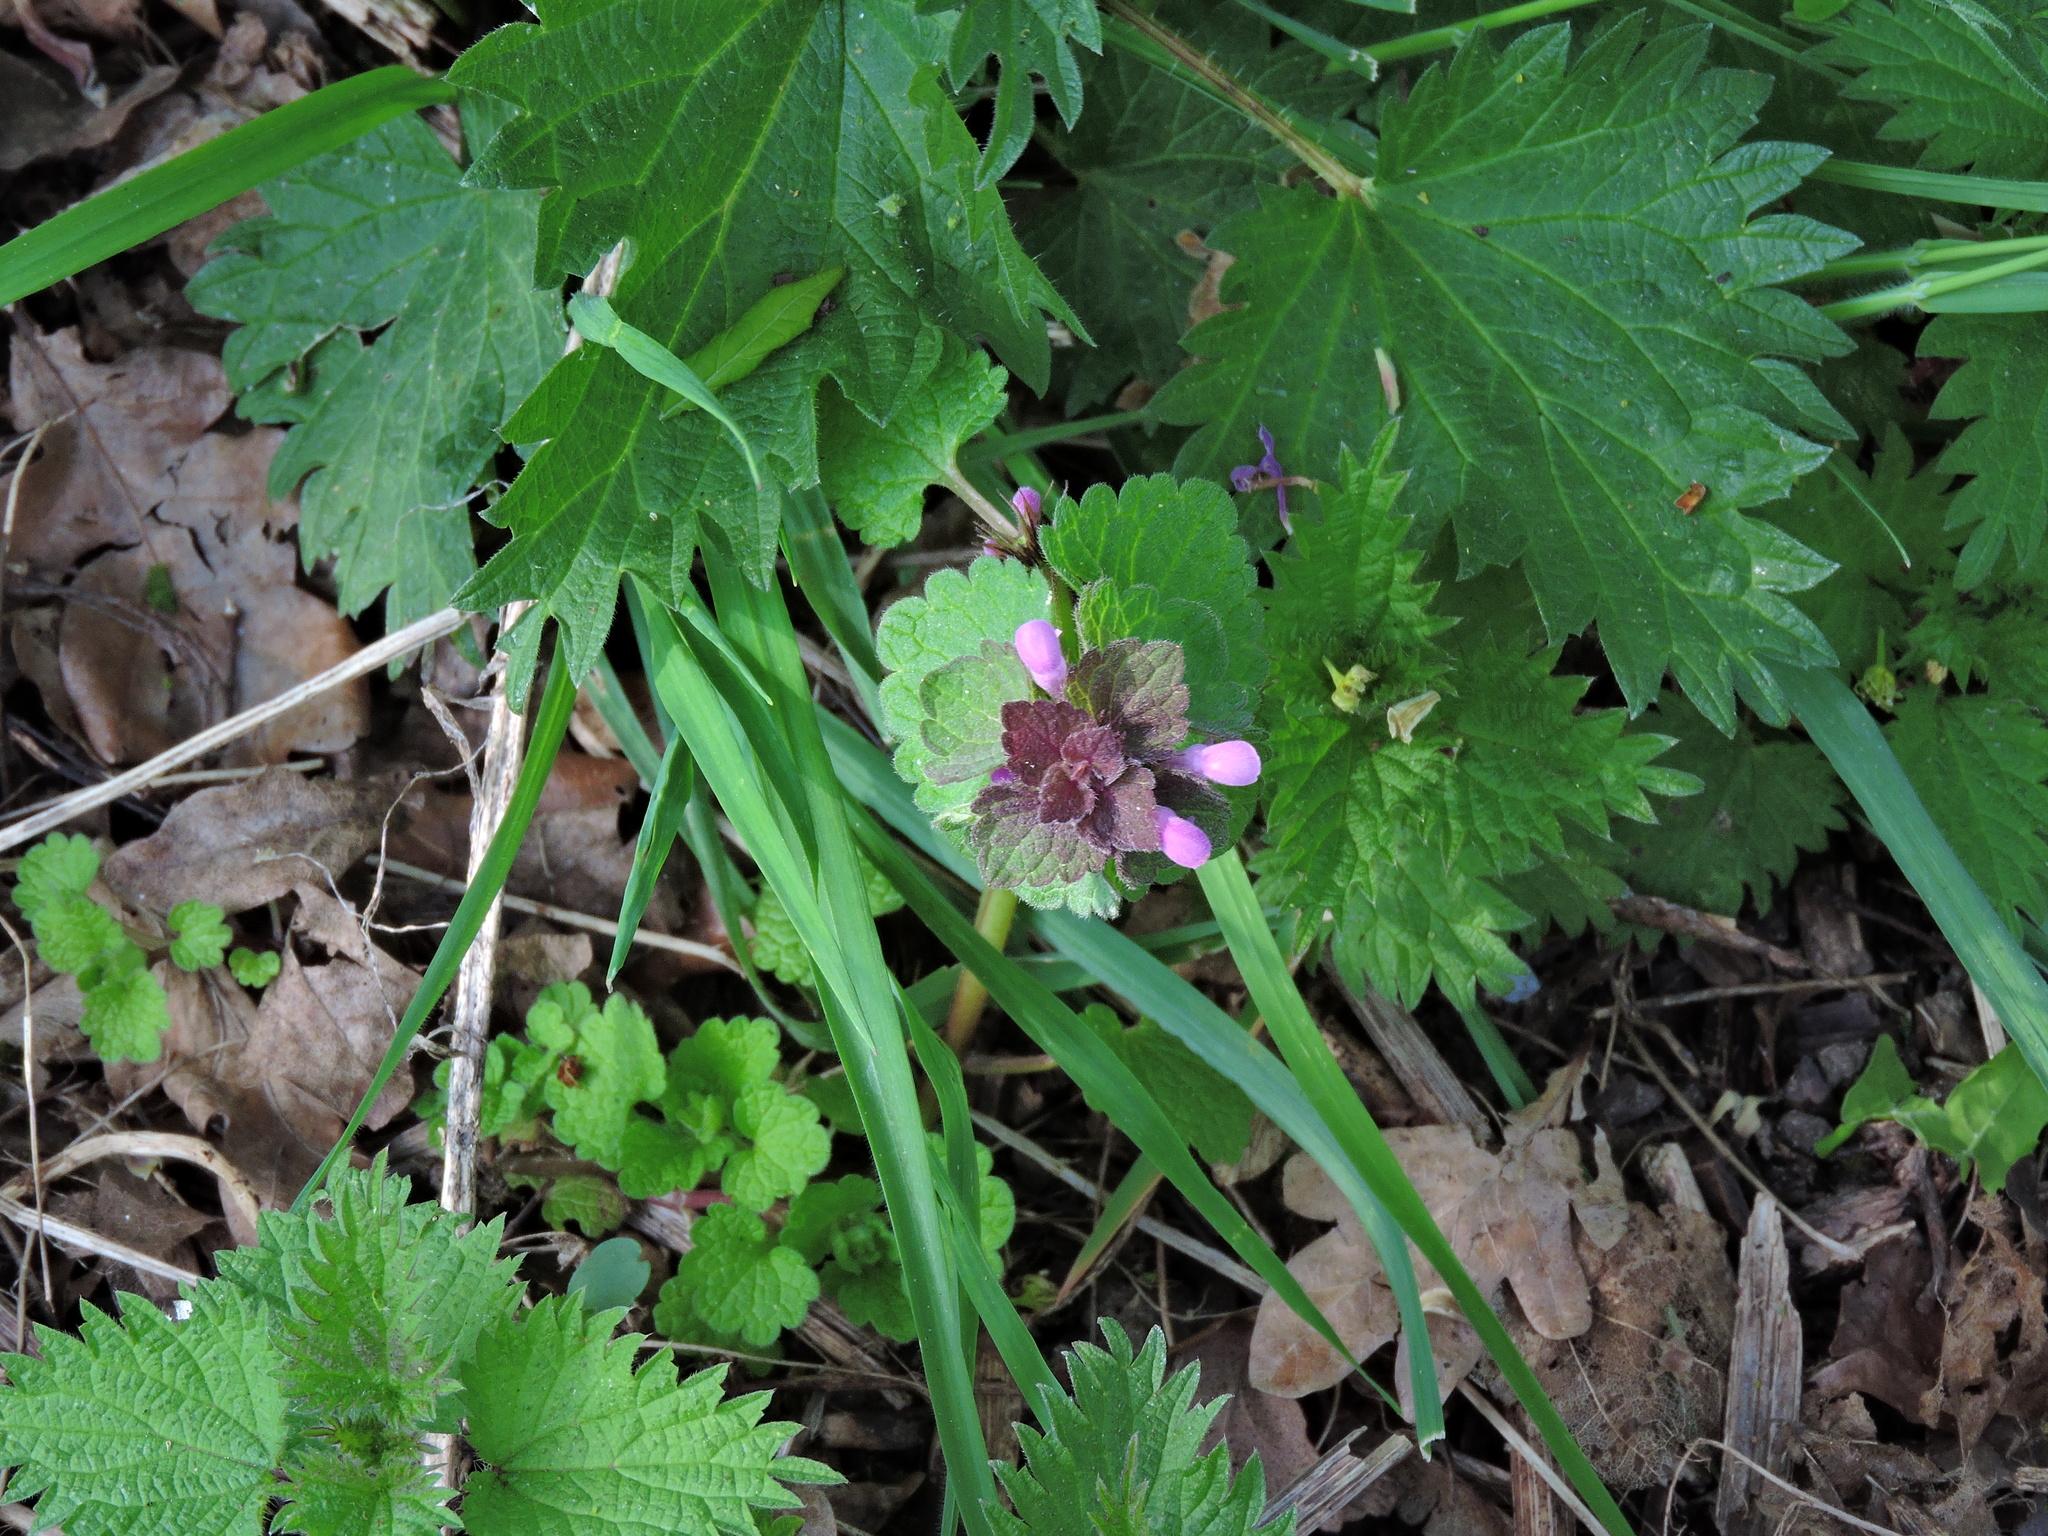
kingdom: Plantae
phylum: Tracheophyta
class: Magnoliopsida
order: Lamiales
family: Lamiaceae
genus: Lamium
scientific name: Lamium purpureum
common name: Red dead-nettle
